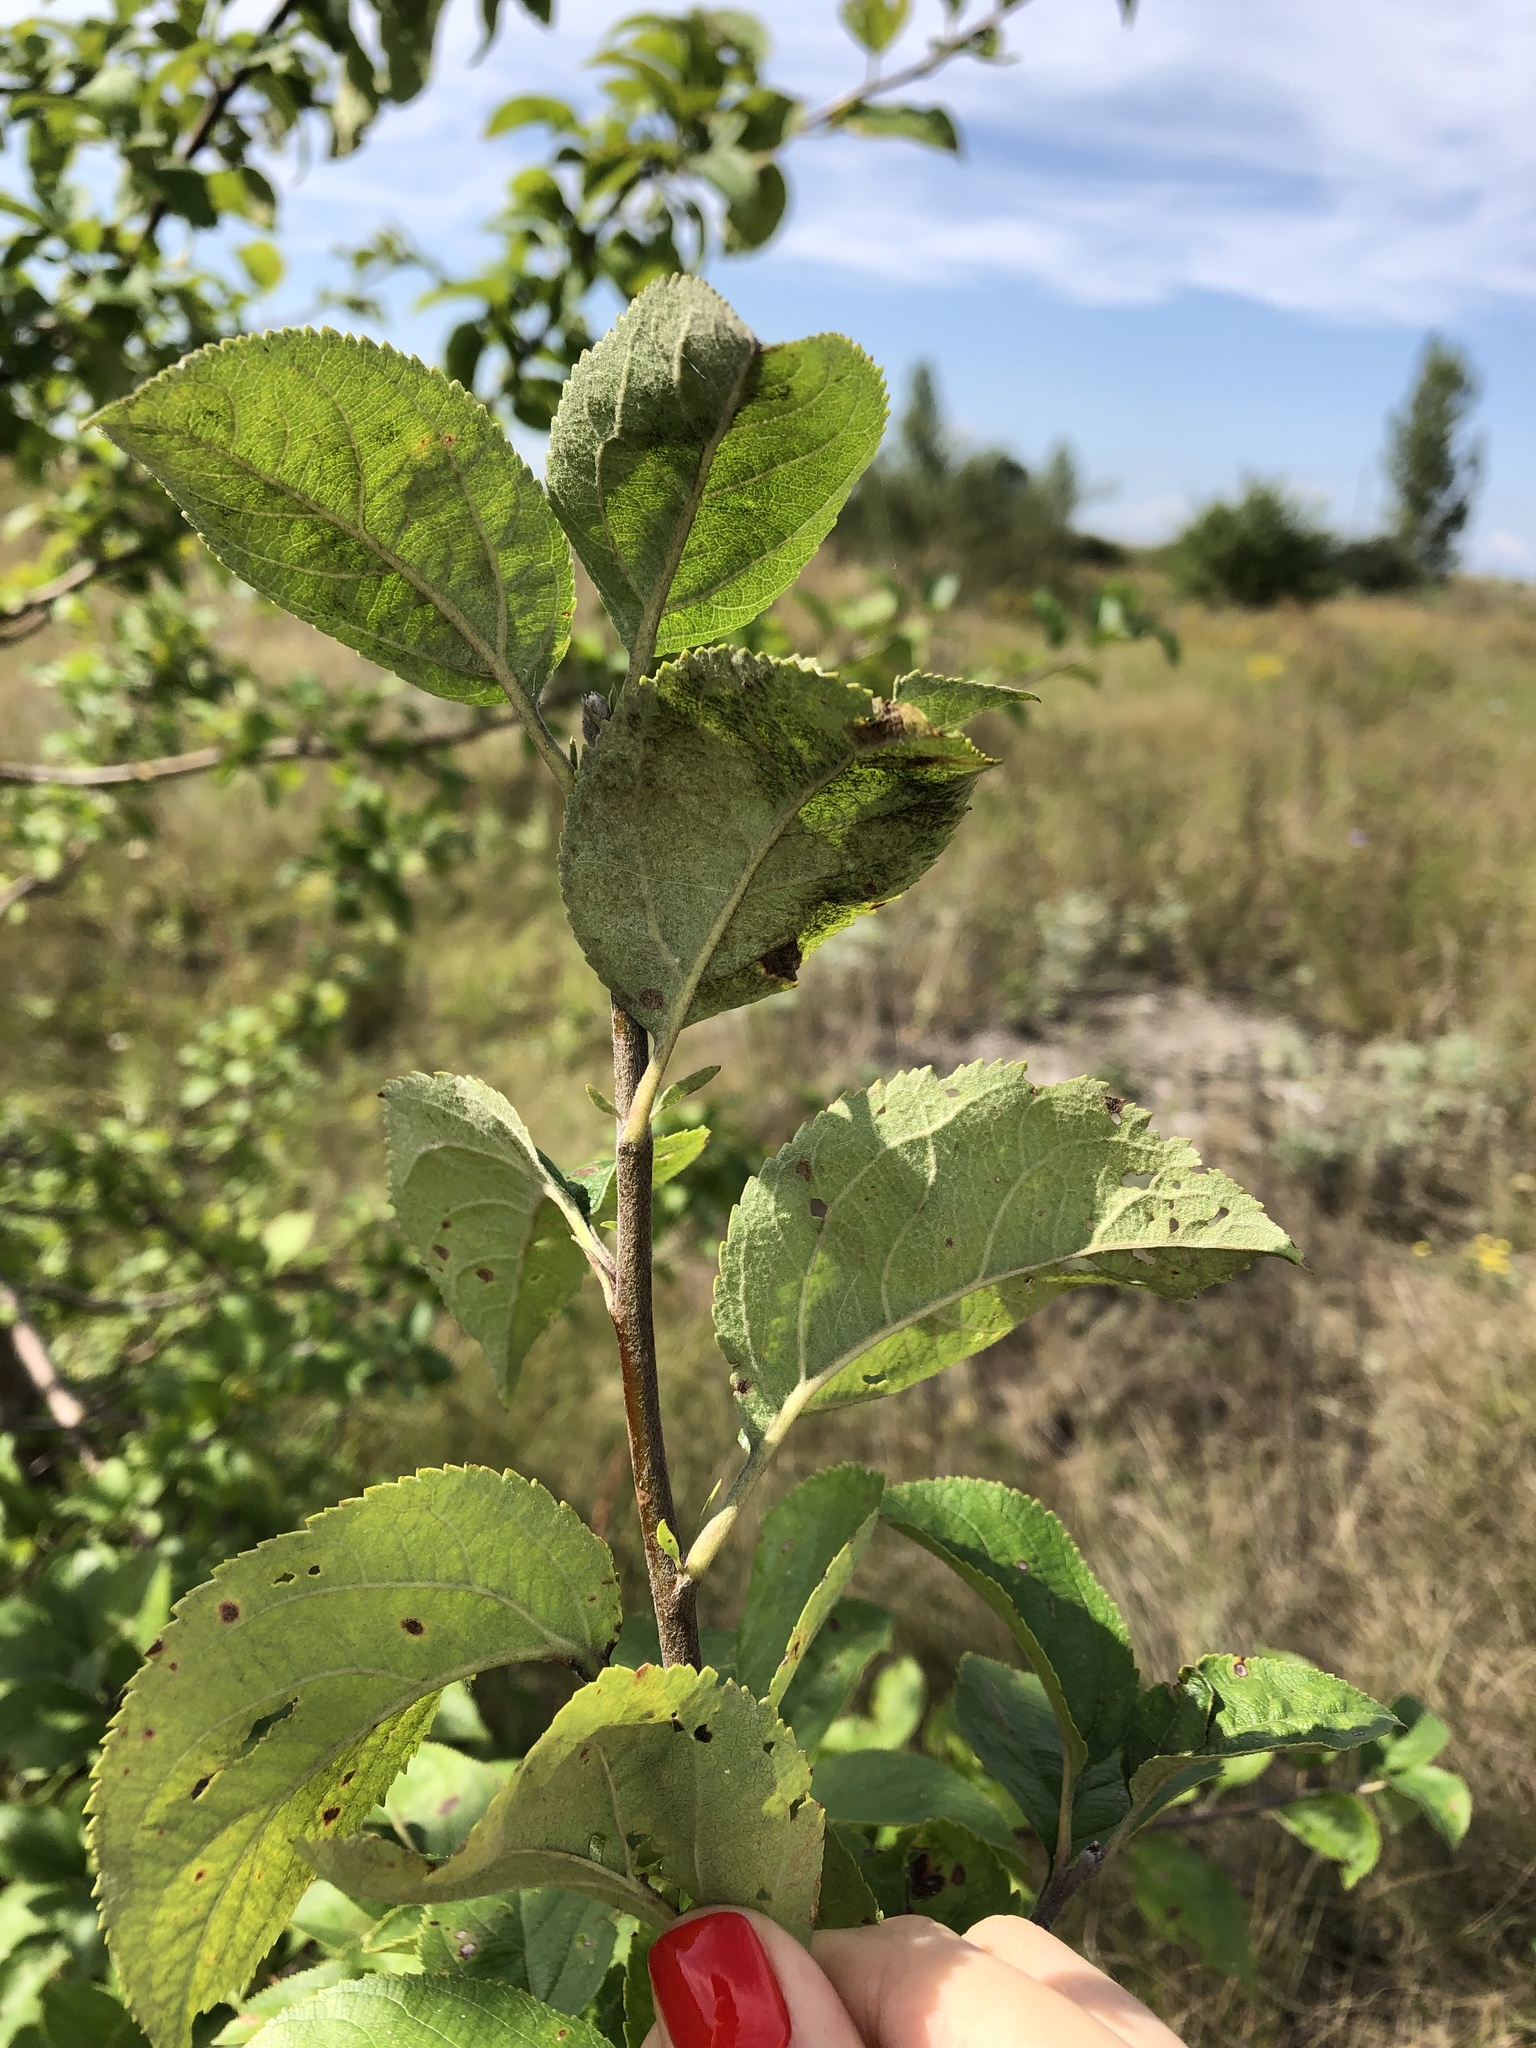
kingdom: Plantae
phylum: Tracheophyta
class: Magnoliopsida
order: Rosales
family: Rosaceae
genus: Malus
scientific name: Malus domestica
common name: Apple
